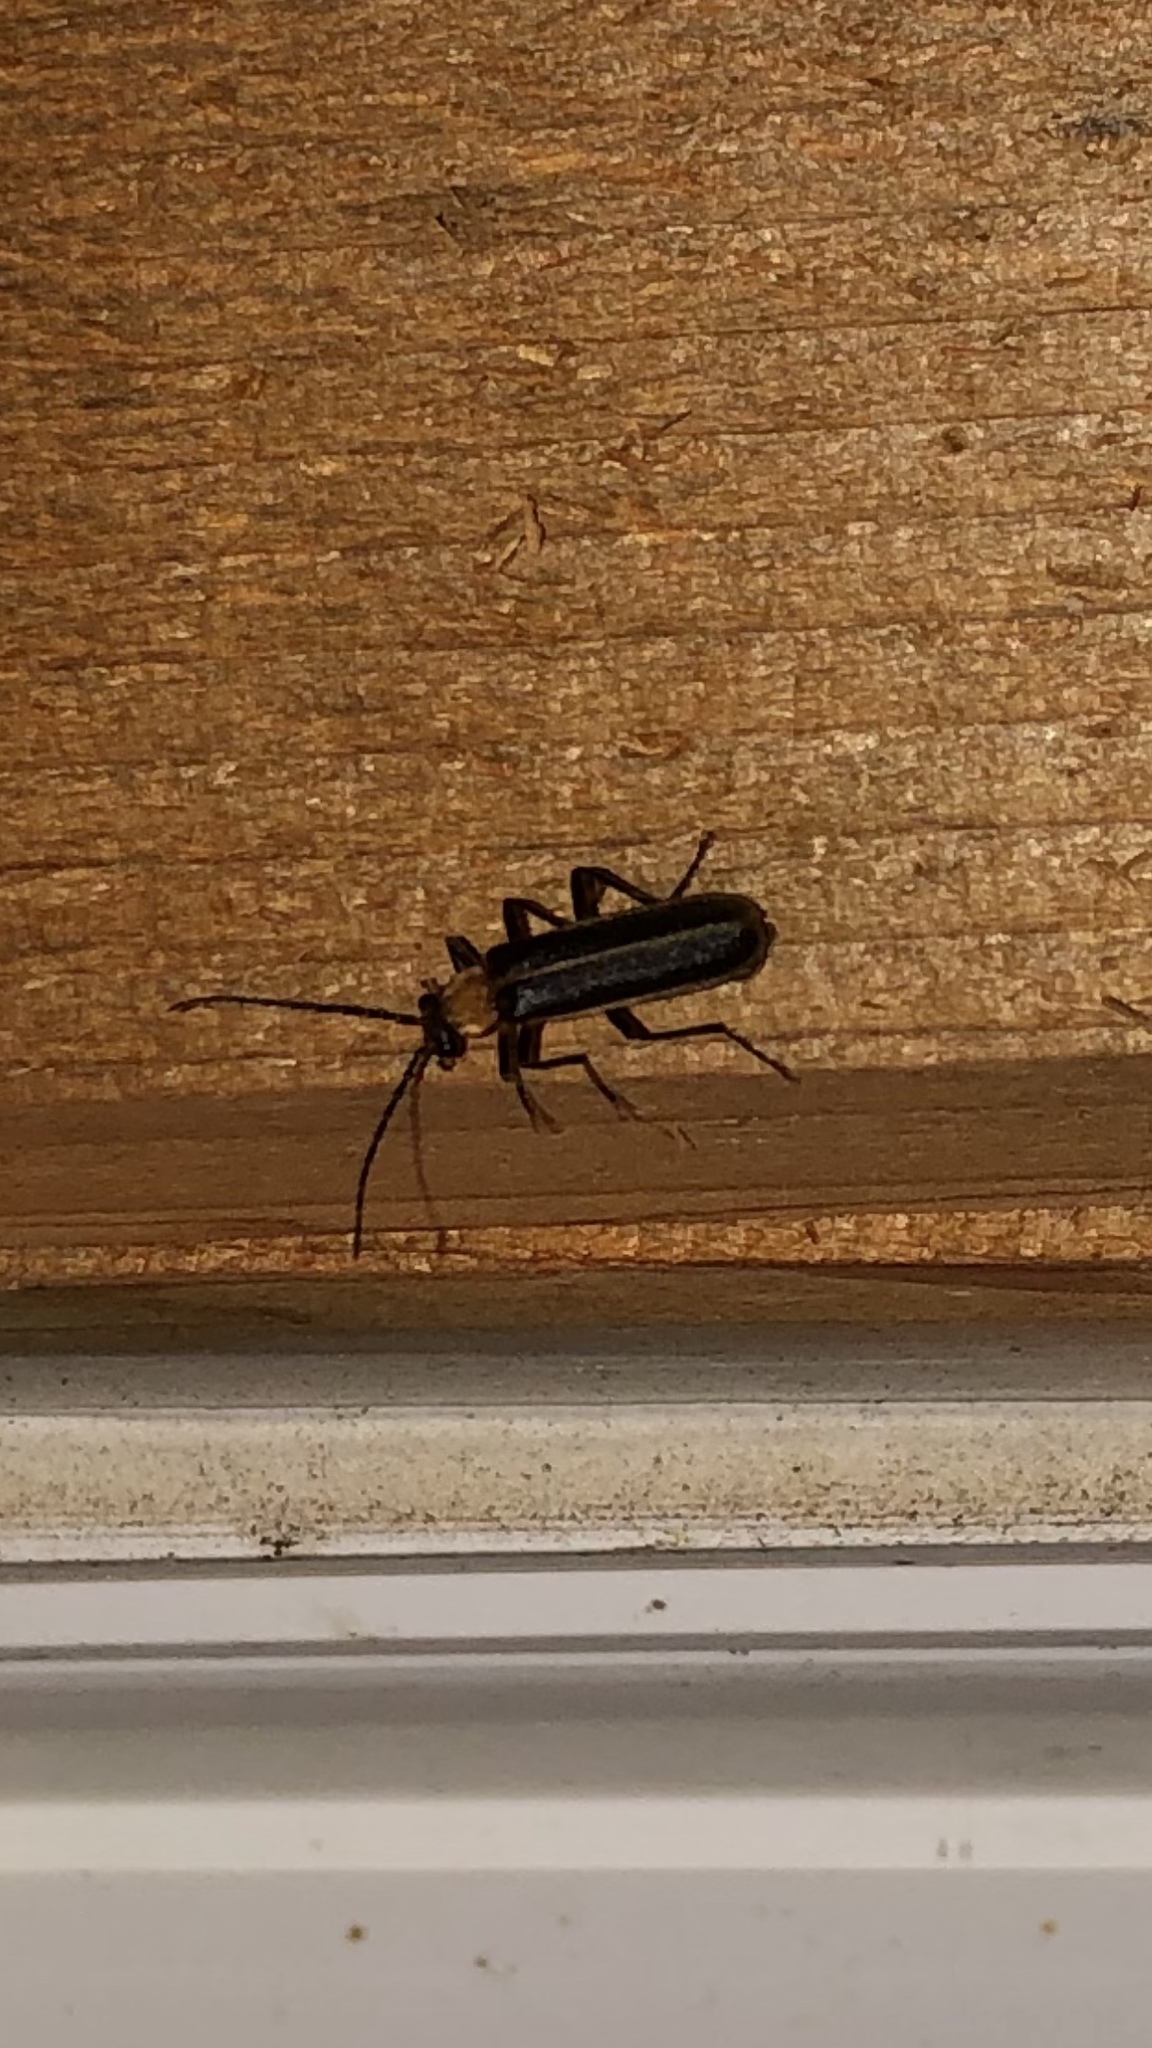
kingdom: Animalia
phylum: Arthropoda
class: Insecta
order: Coleoptera
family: Cantharidae
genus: Podabrus
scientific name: Podabrus flavicollis
